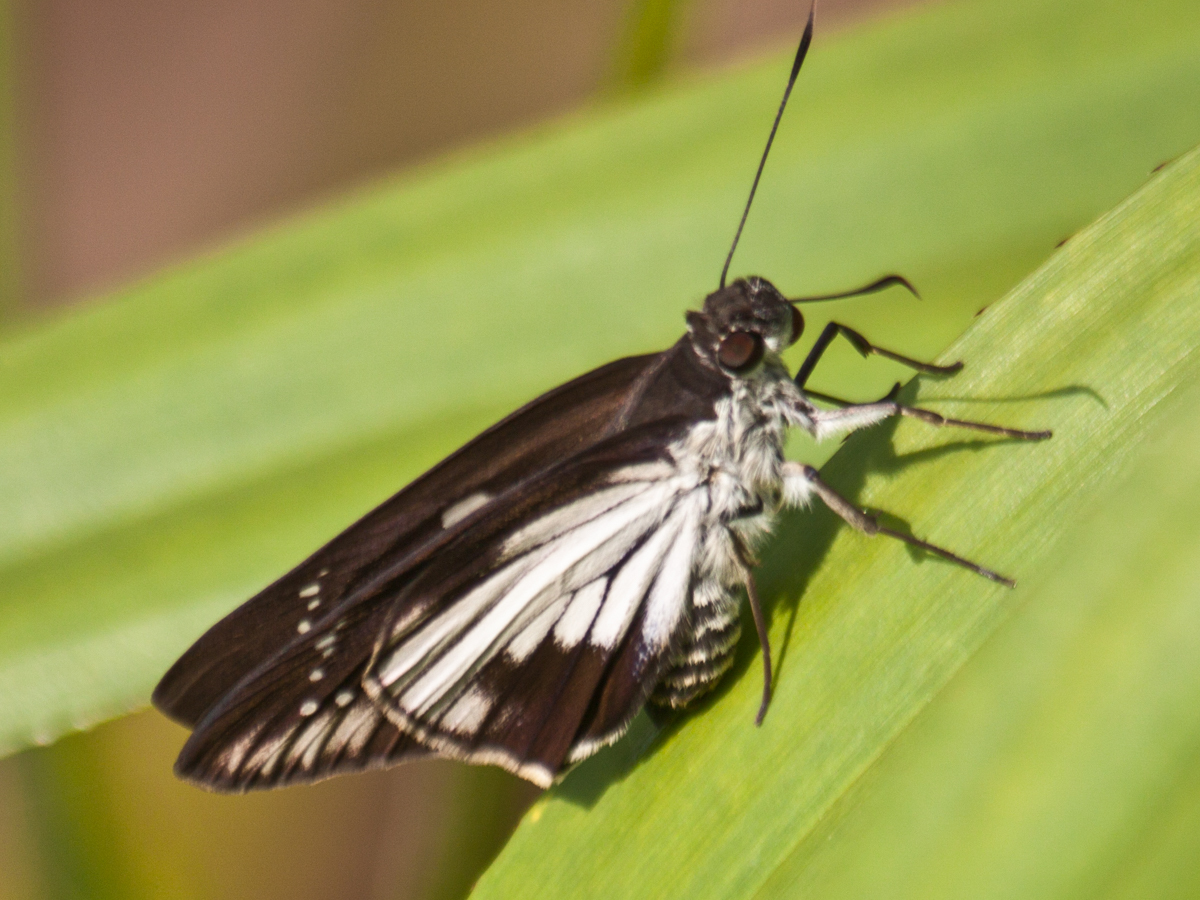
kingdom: Animalia
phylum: Arthropoda
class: Insecta
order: Lepidoptera
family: Hesperiidae
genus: Unkana
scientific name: Unkana ambasa
